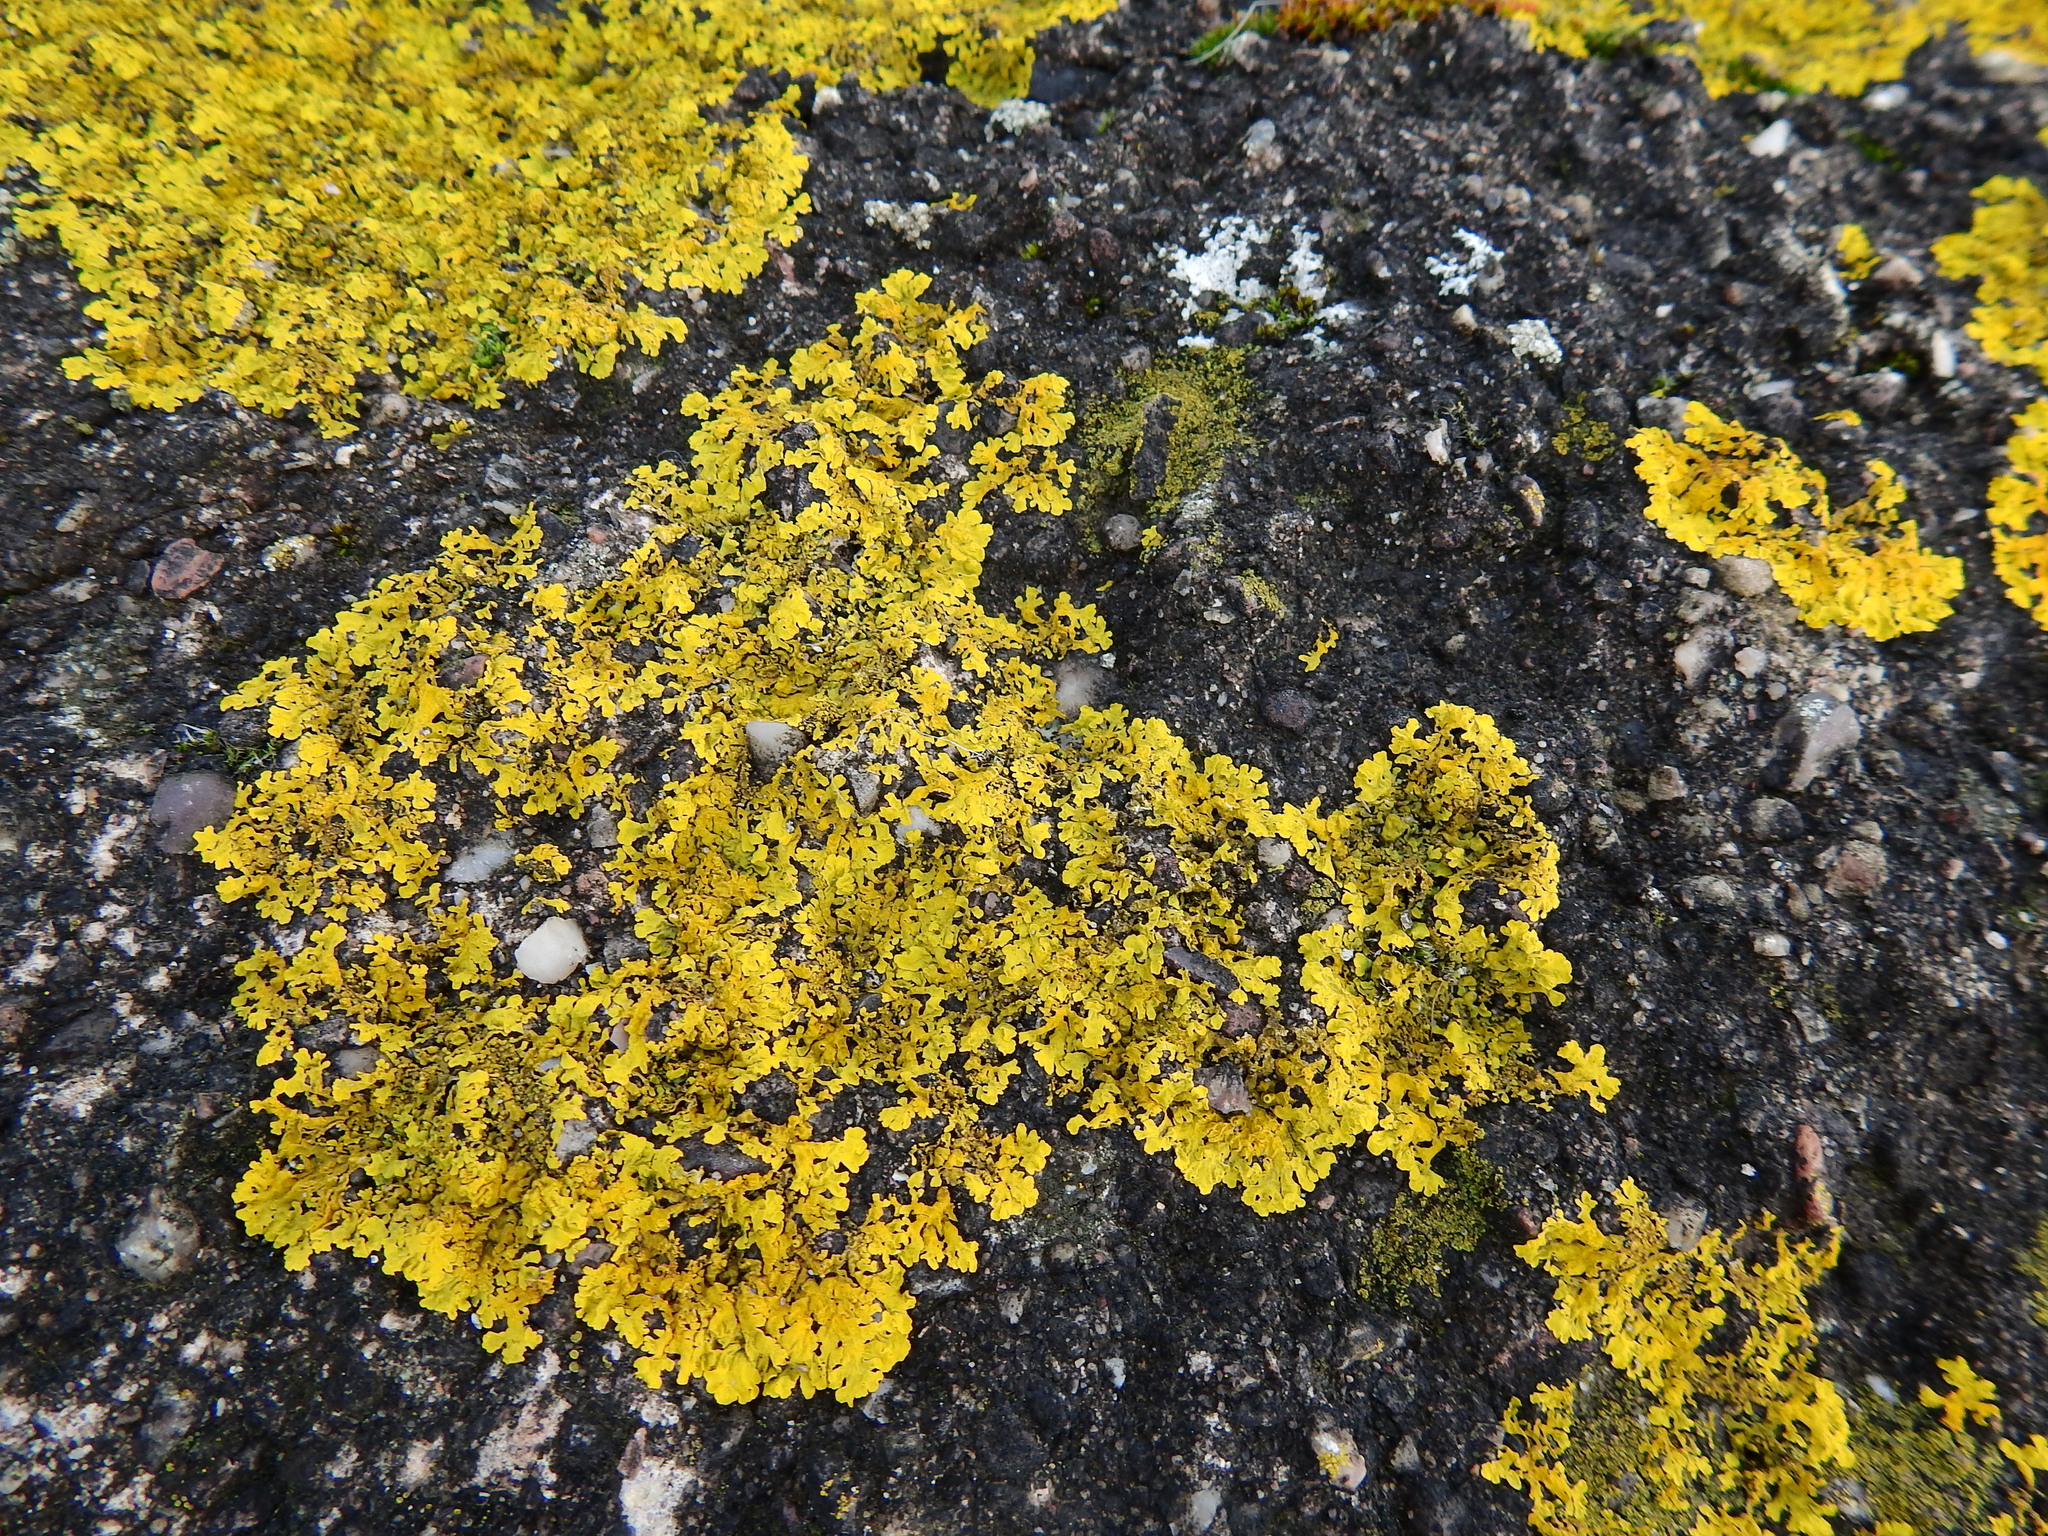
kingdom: Fungi
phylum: Ascomycota
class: Lecanoromycetes
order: Teloschistales
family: Teloschistaceae
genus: Xanthoria
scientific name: Xanthoria parietina
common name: Common orange lichen
